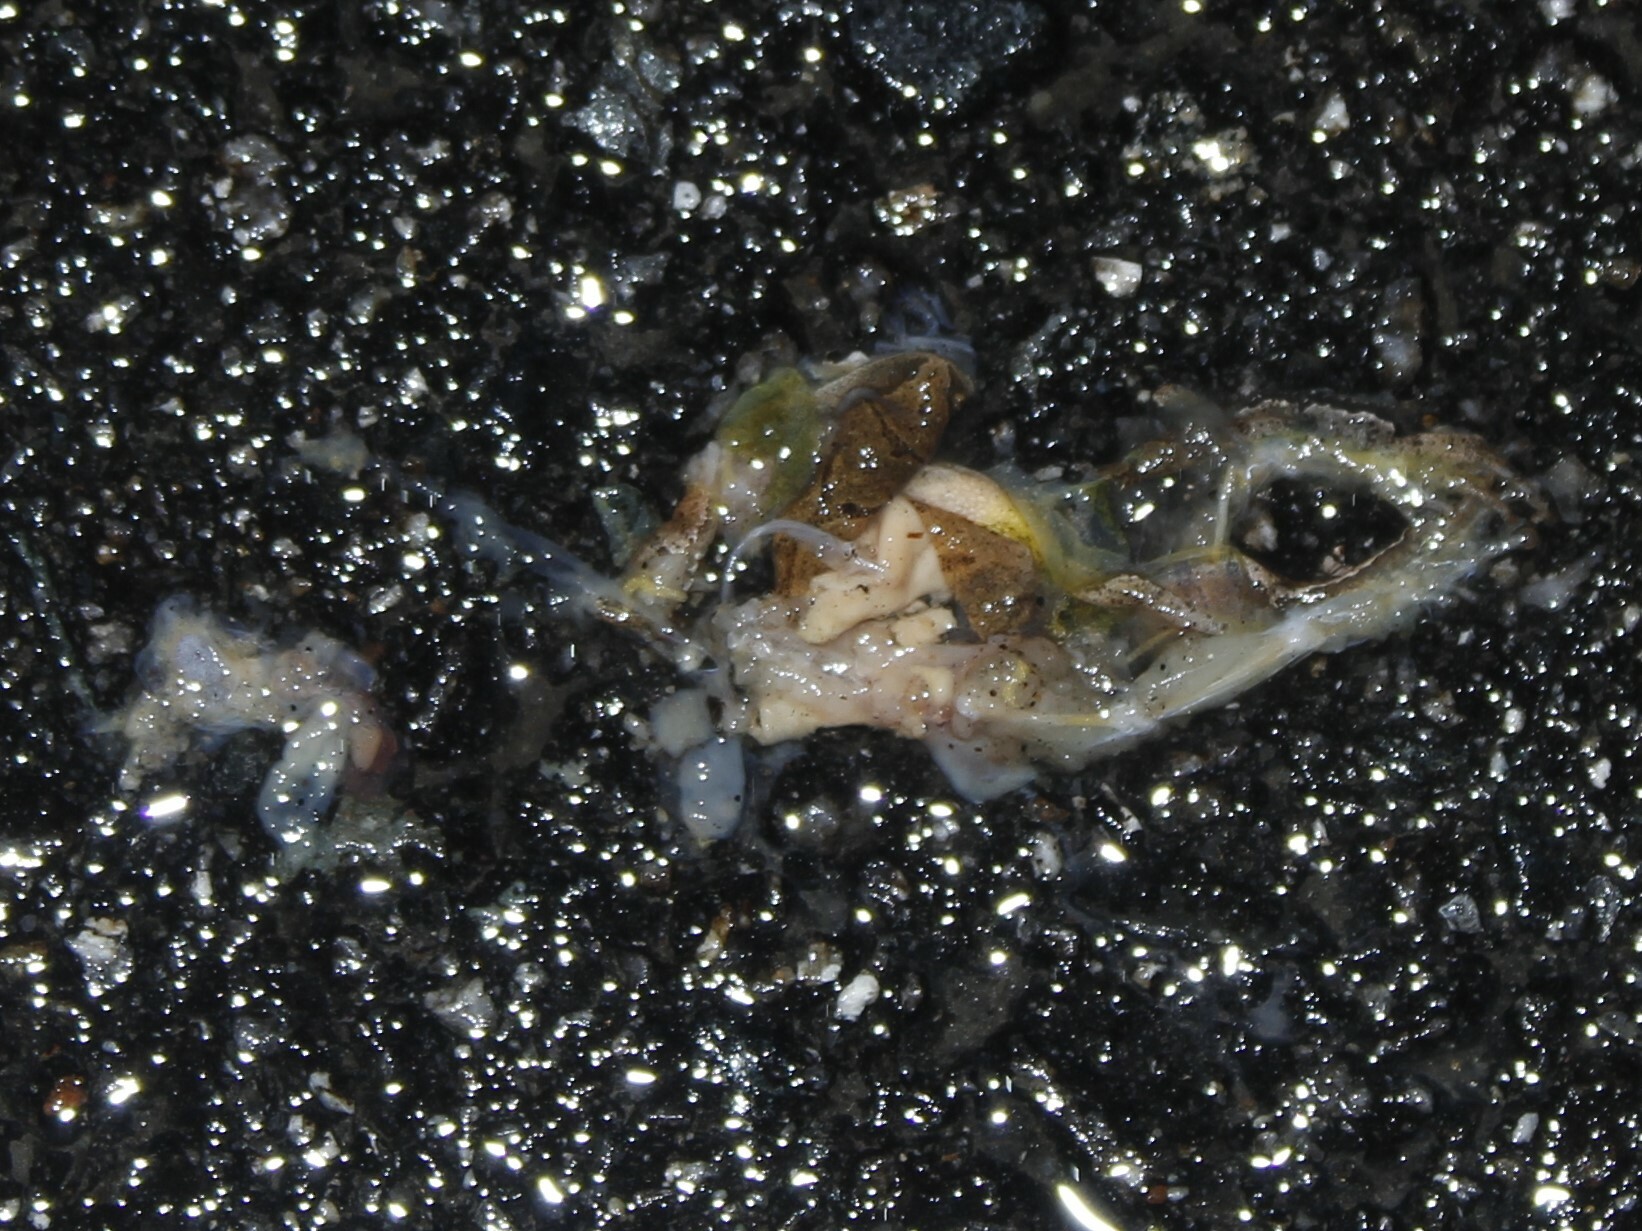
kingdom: Animalia
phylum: Chordata
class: Amphibia
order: Anura
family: Hylidae
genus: Pseudacris
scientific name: Pseudacris crucifer
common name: Spring peeper
